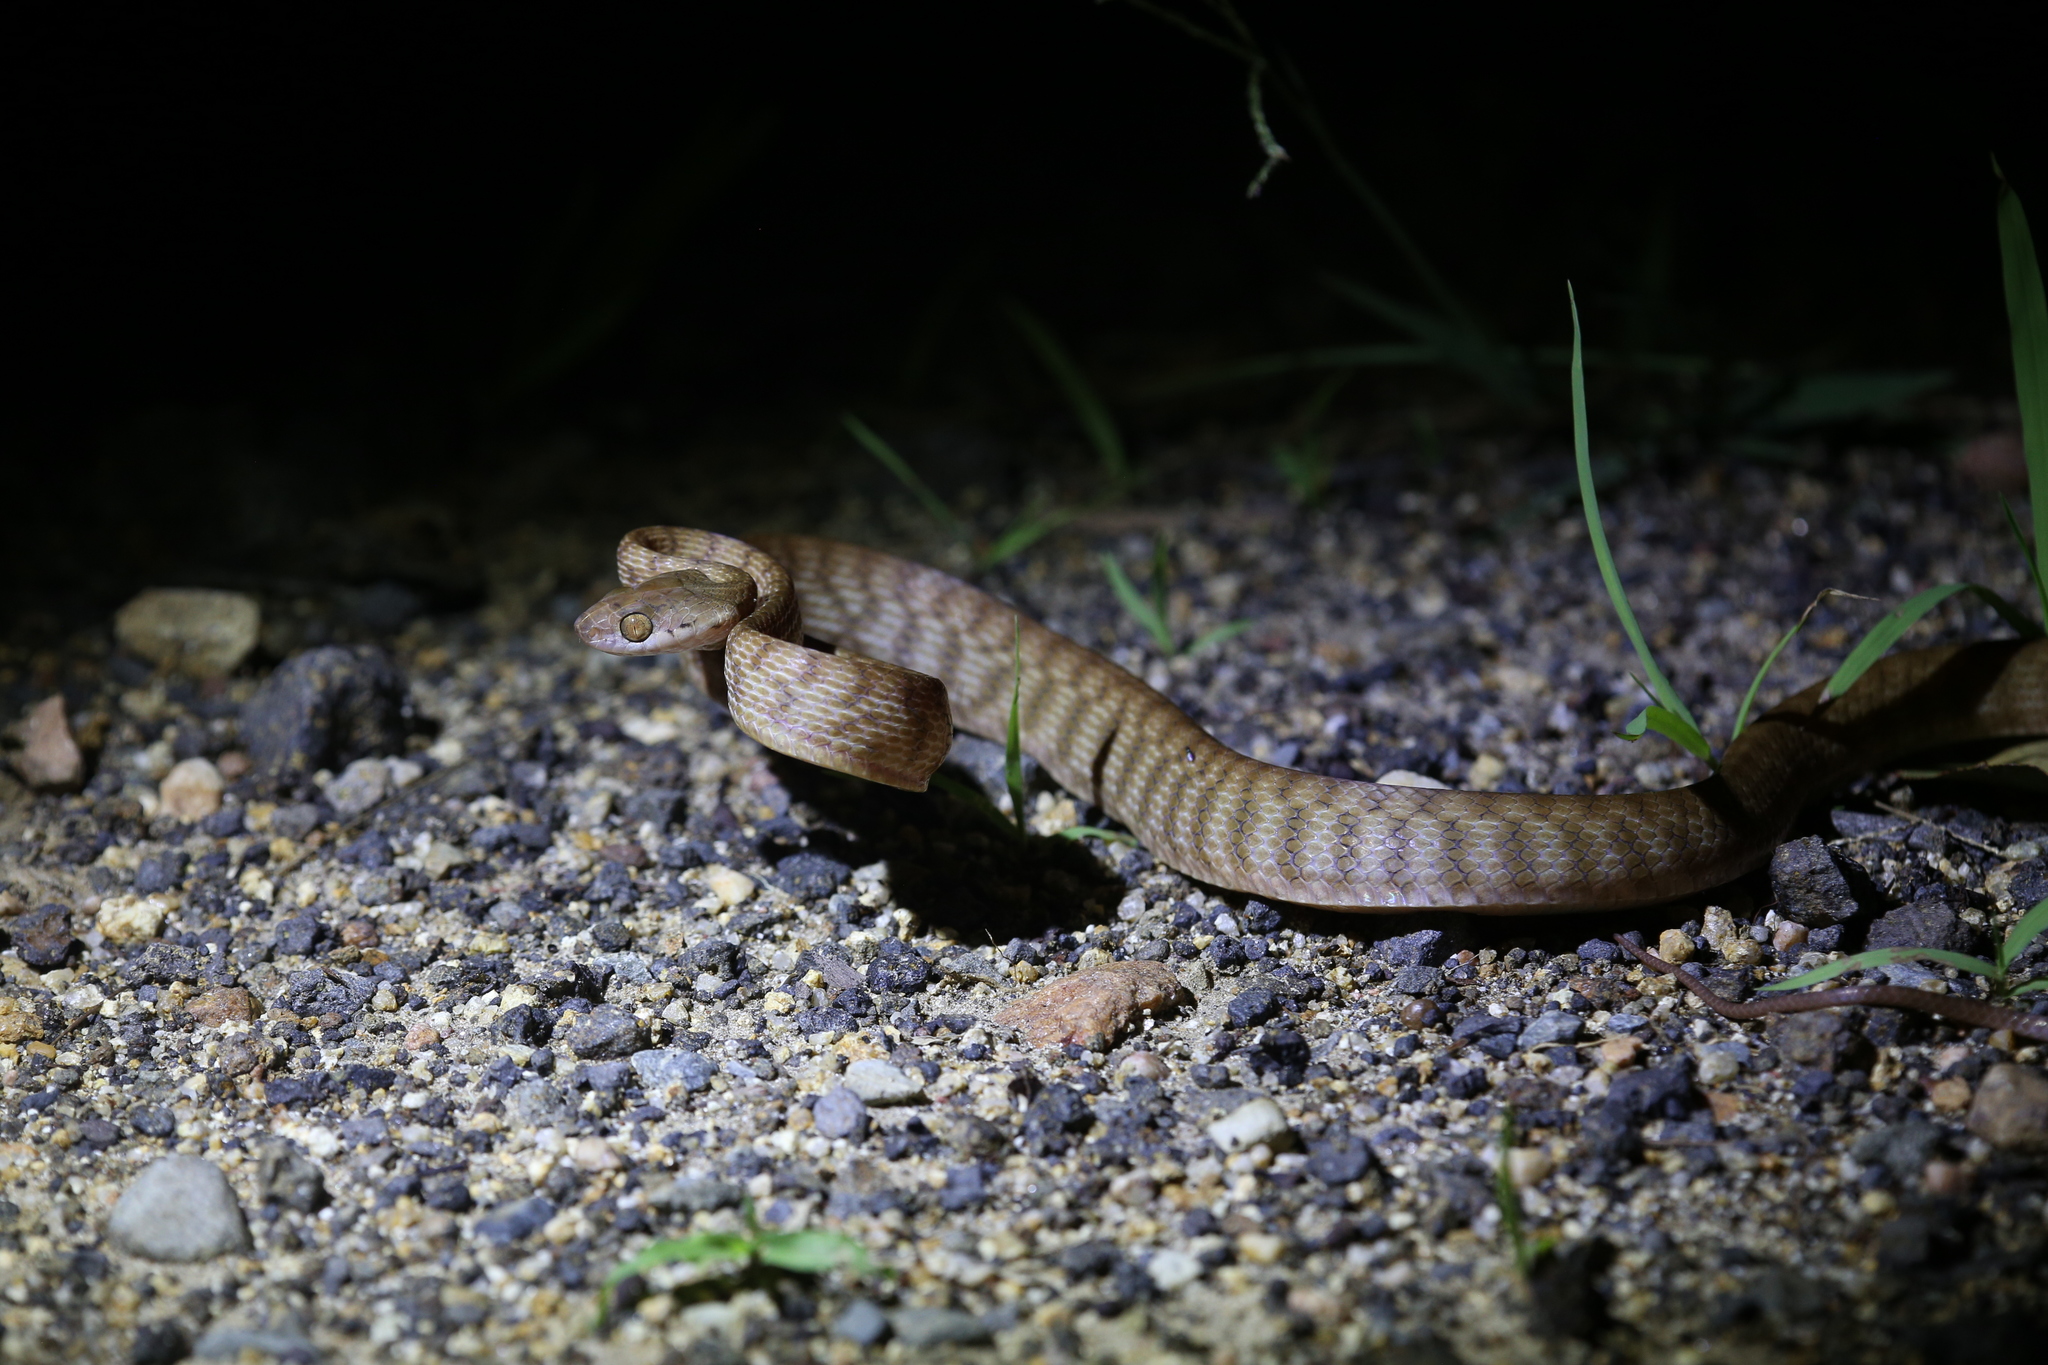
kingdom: Animalia
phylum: Chordata
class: Squamata
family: Colubridae
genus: Boiga
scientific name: Boiga irregularis
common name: Brown tree snake
